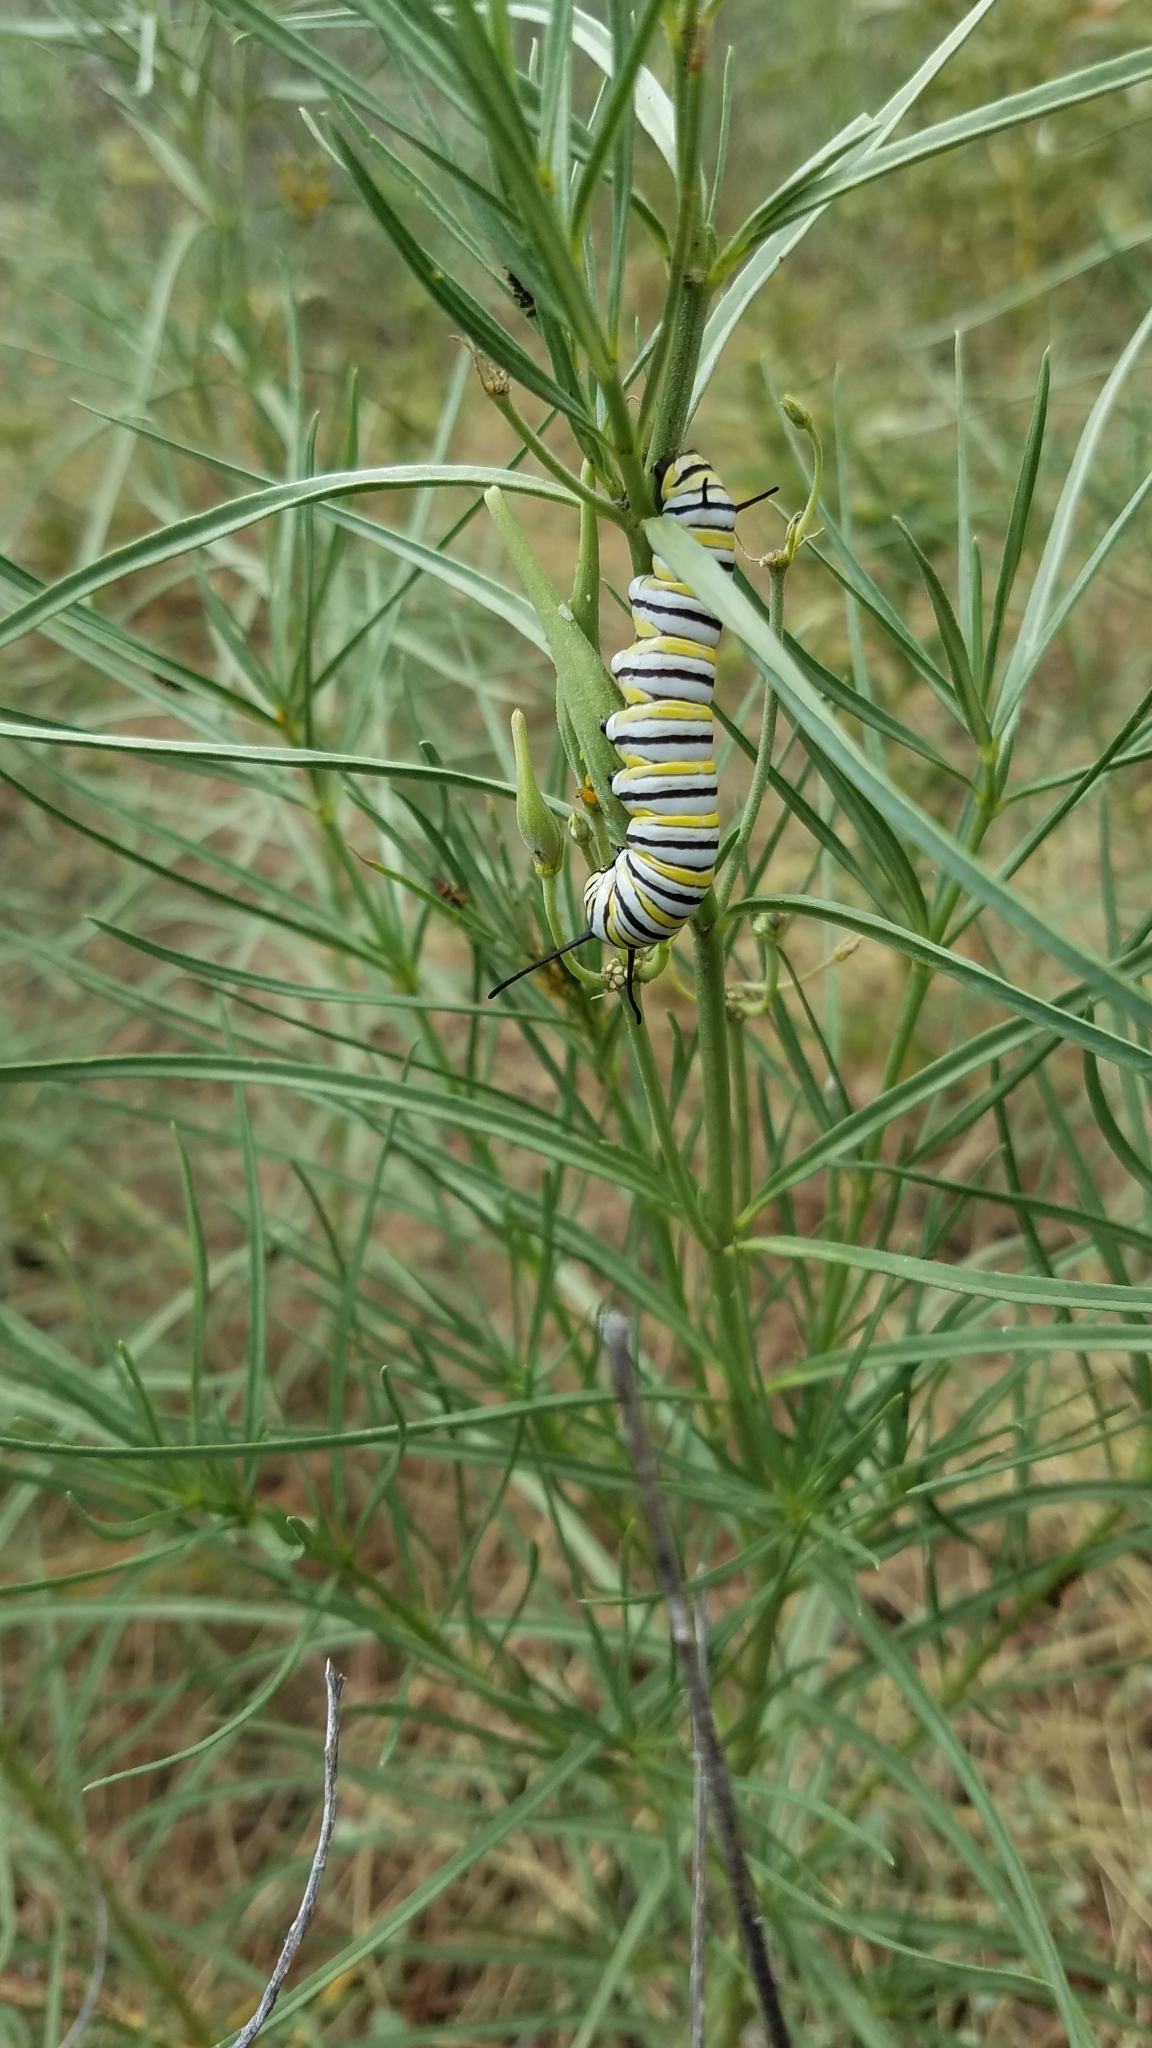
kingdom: Animalia
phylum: Arthropoda
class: Insecta
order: Lepidoptera
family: Nymphalidae
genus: Danaus
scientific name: Danaus plexippus
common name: Monarch
